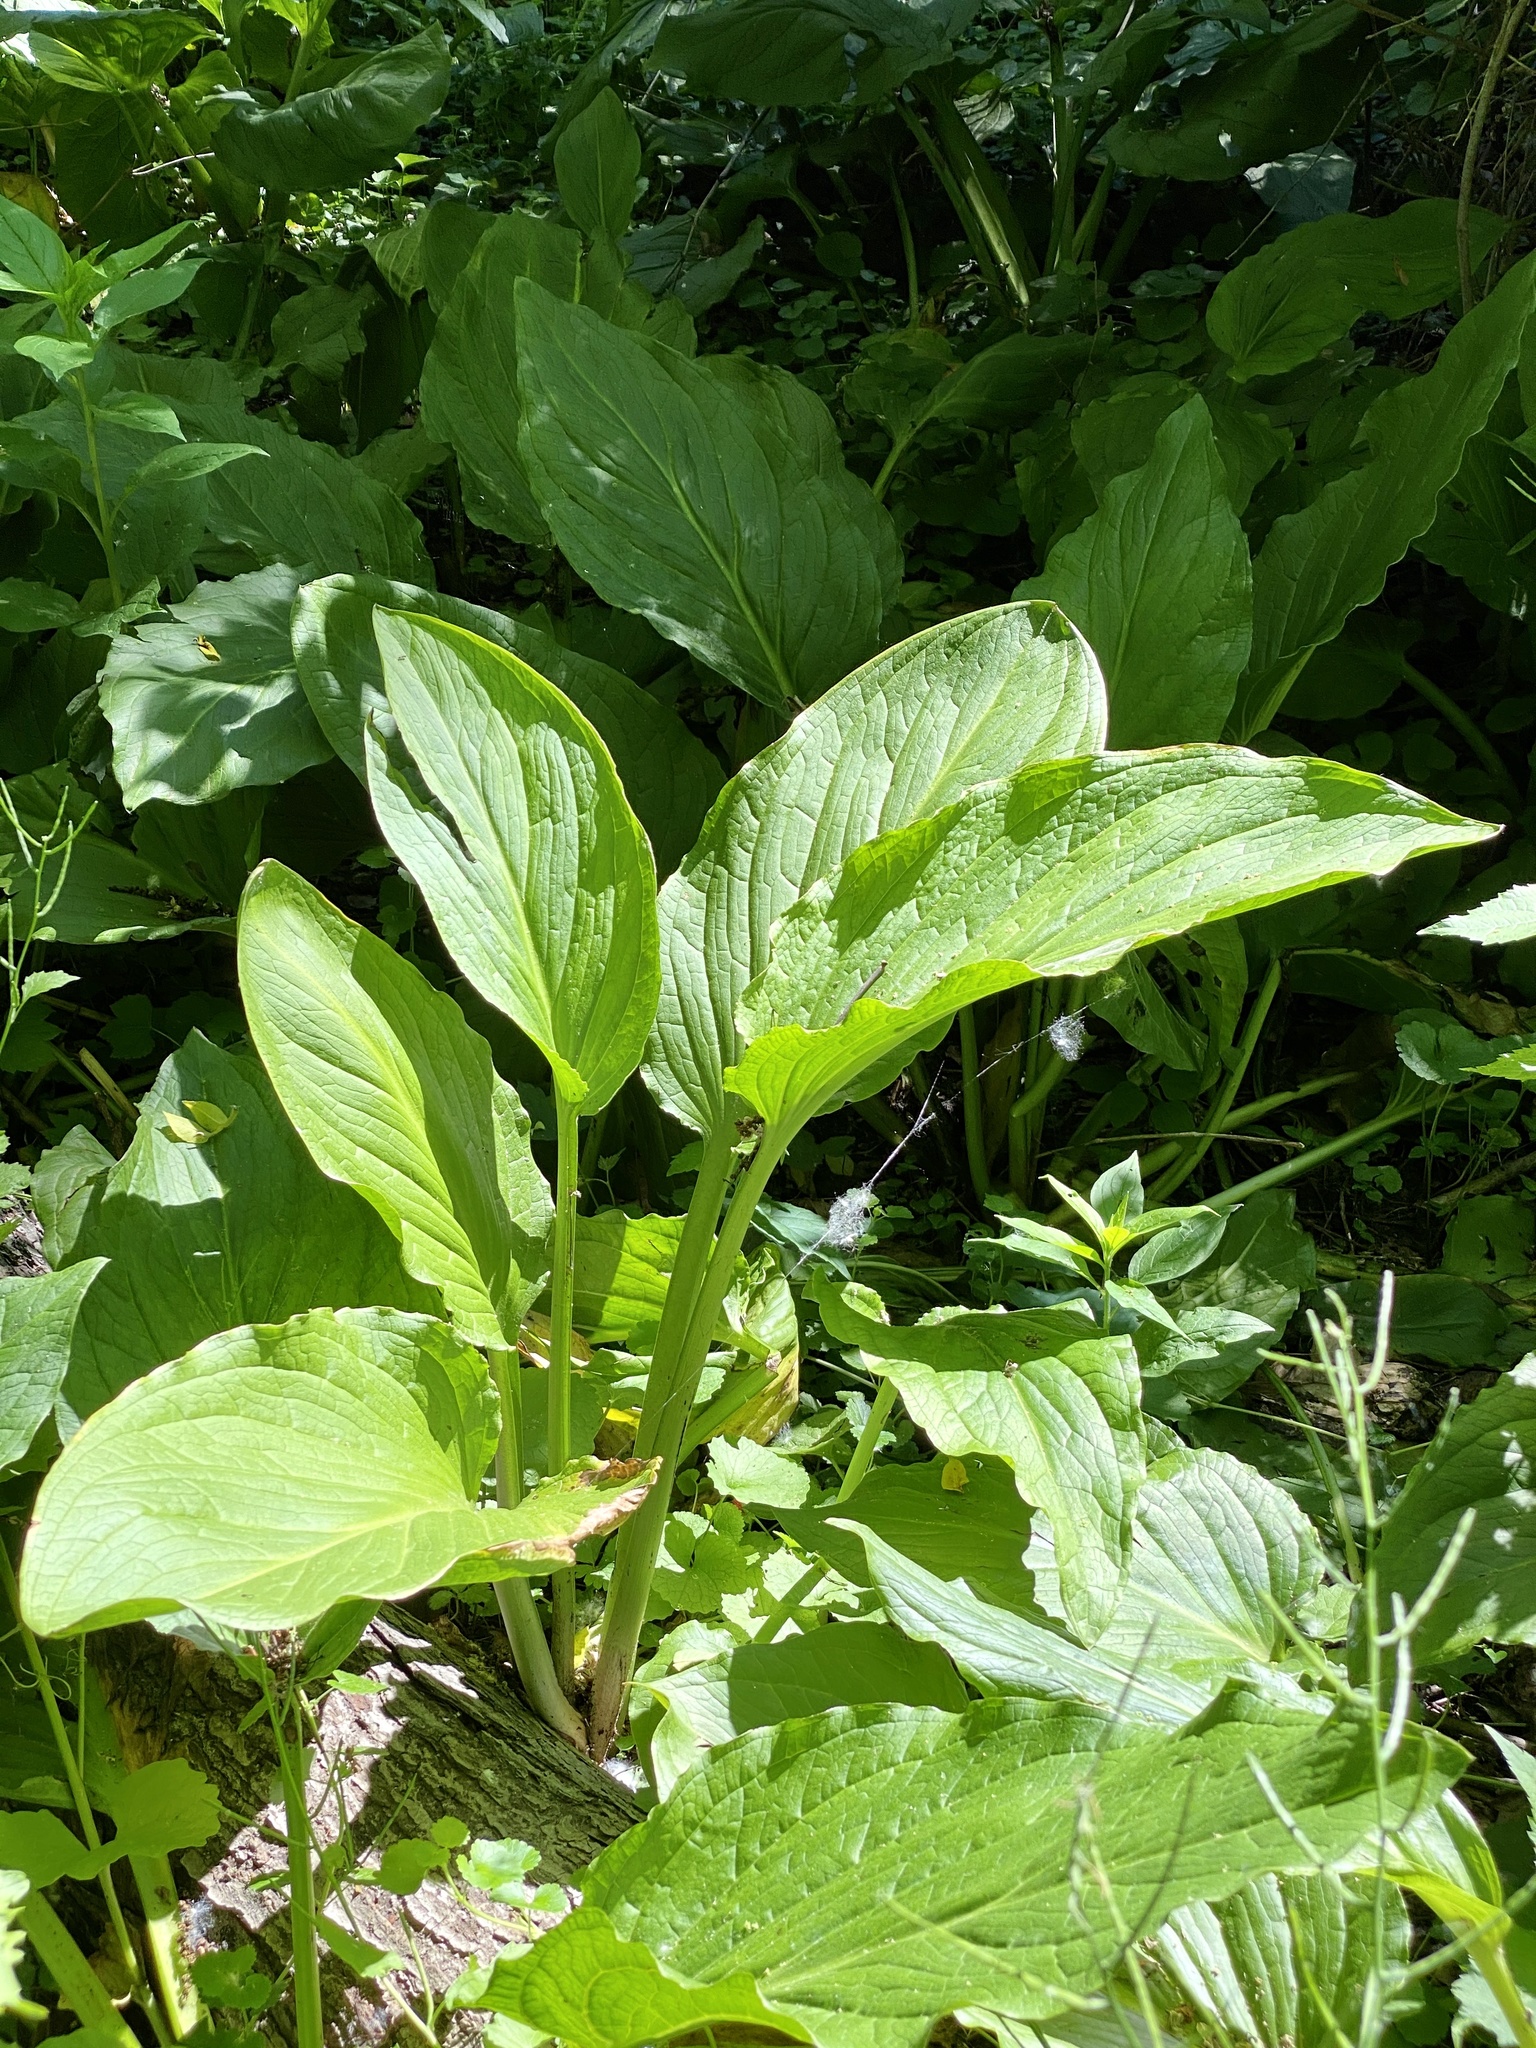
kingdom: Plantae
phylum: Tracheophyta
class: Liliopsida
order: Alismatales
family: Araceae
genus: Symplocarpus
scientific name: Symplocarpus foetidus
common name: Eastern skunk cabbage
